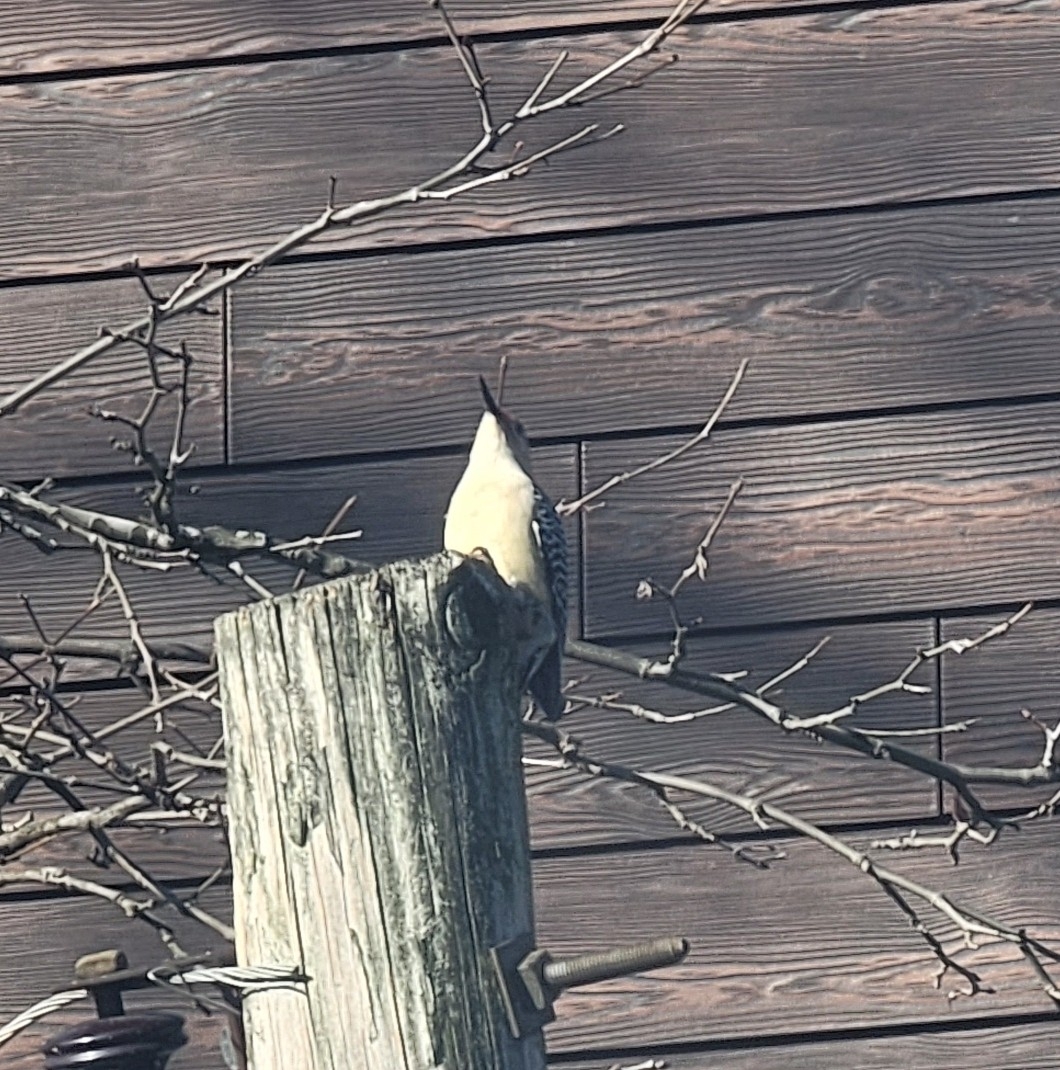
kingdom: Animalia
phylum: Chordata
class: Aves
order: Piciformes
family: Picidae
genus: Melanerpes
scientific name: Melanerpes carolinus
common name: Red-bellied woodpecker
